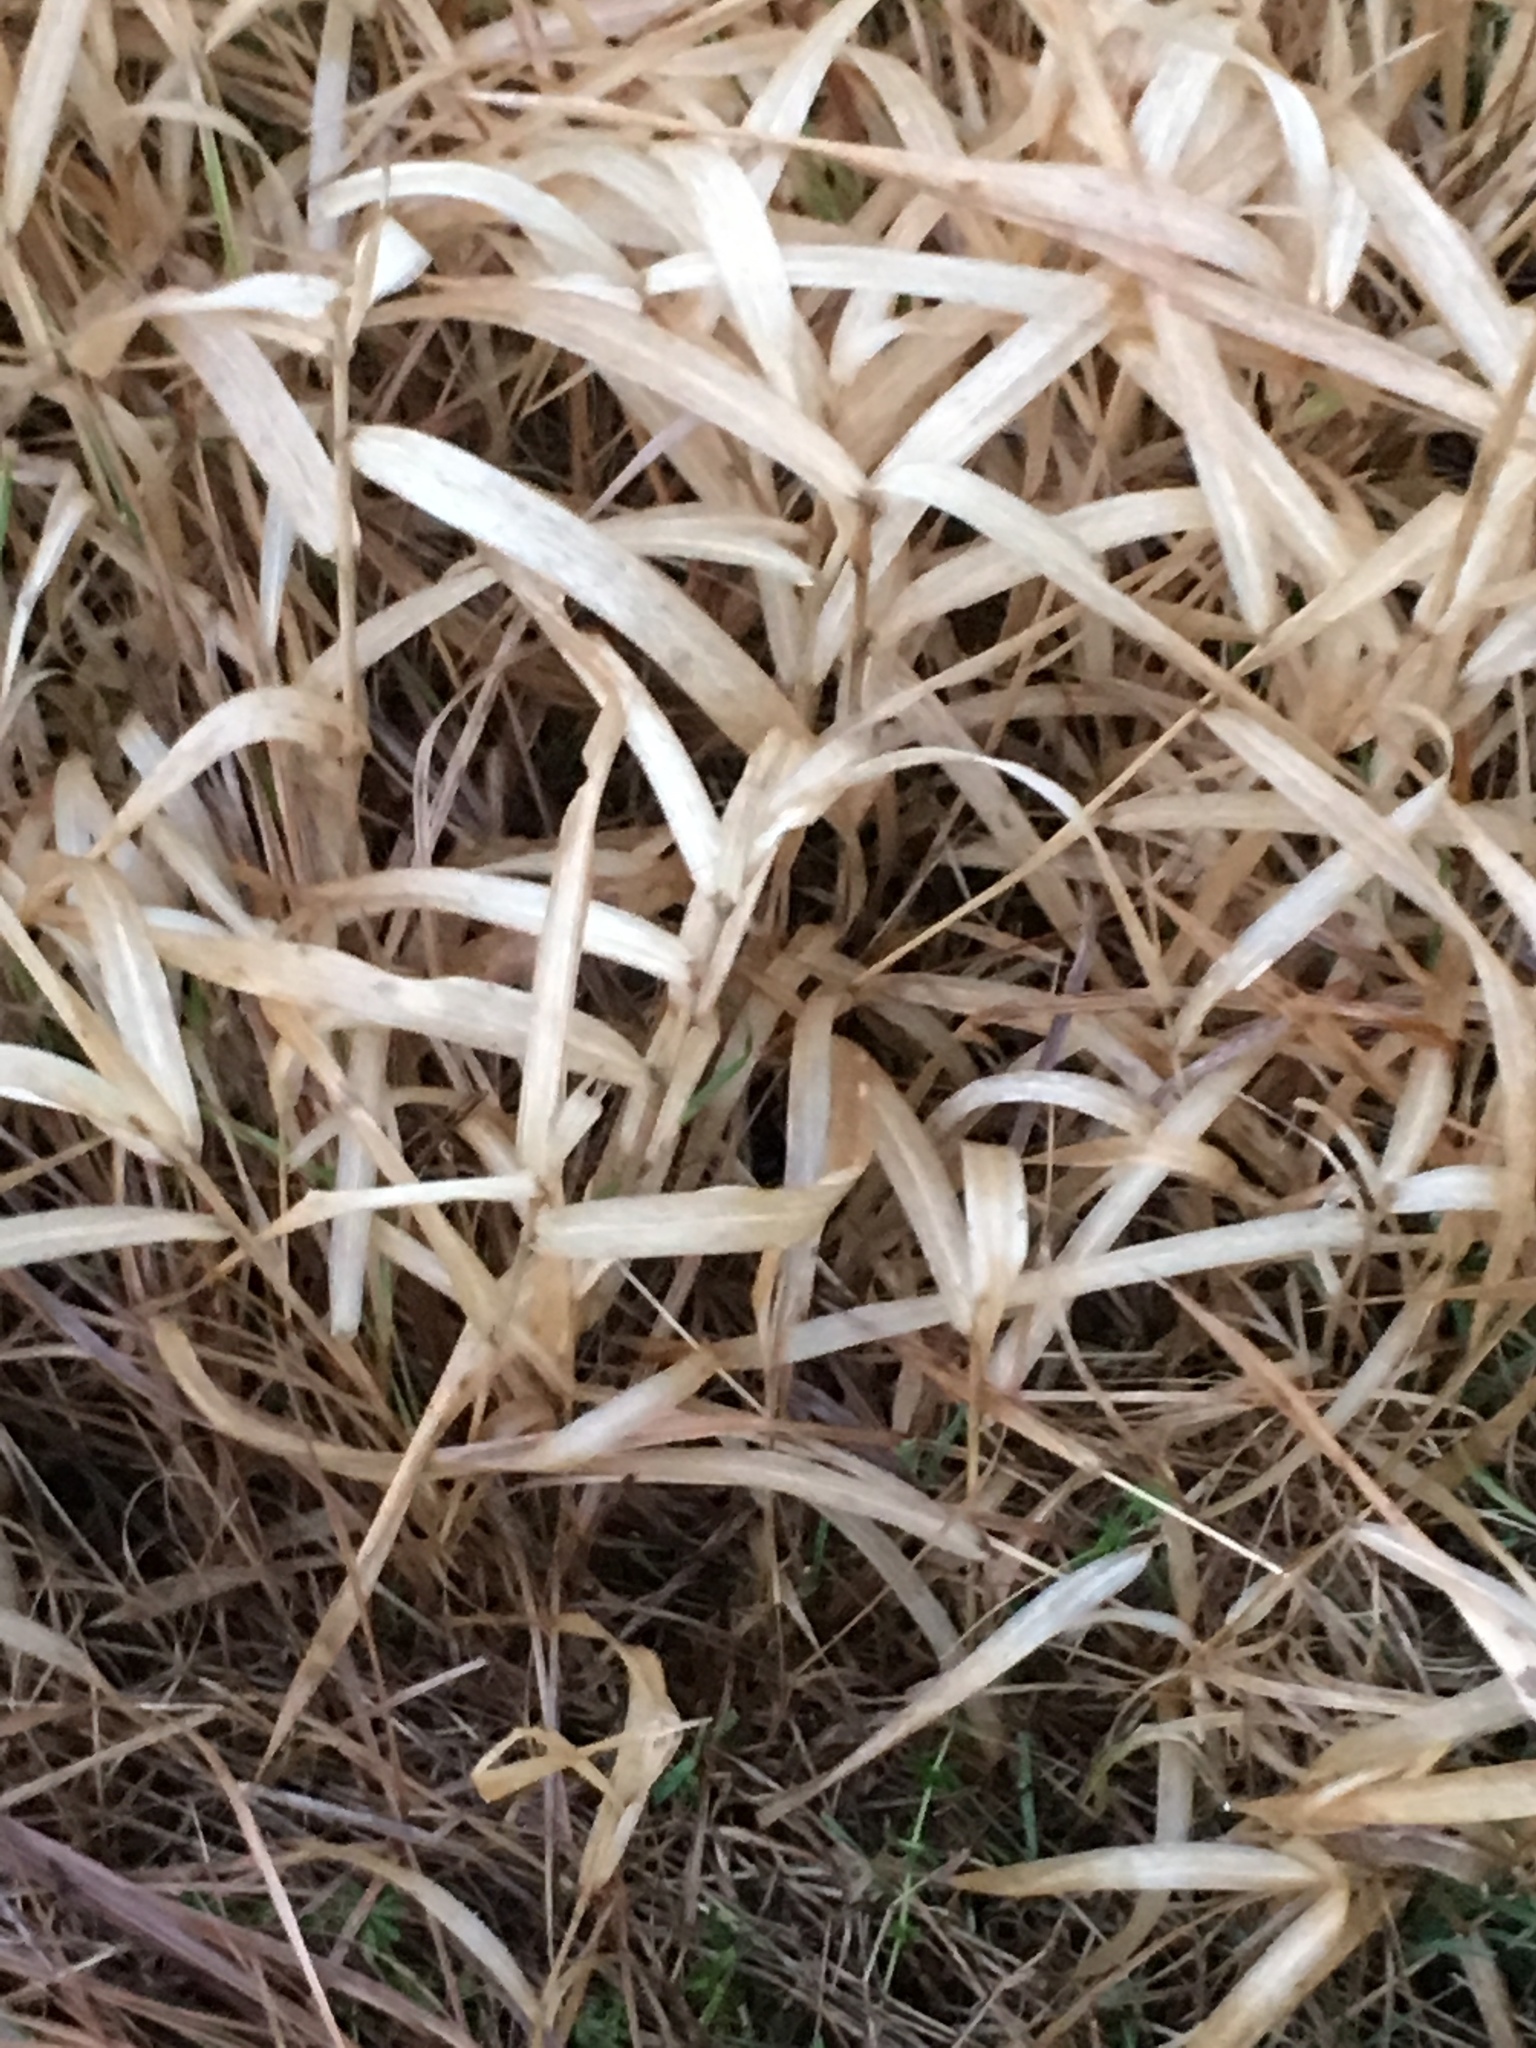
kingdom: Plantae
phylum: Tracheophyta
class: Liliopsida
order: Poales
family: Poaceae
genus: Phalaris
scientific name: Phalaris arundinacea
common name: Reed canary-grass
